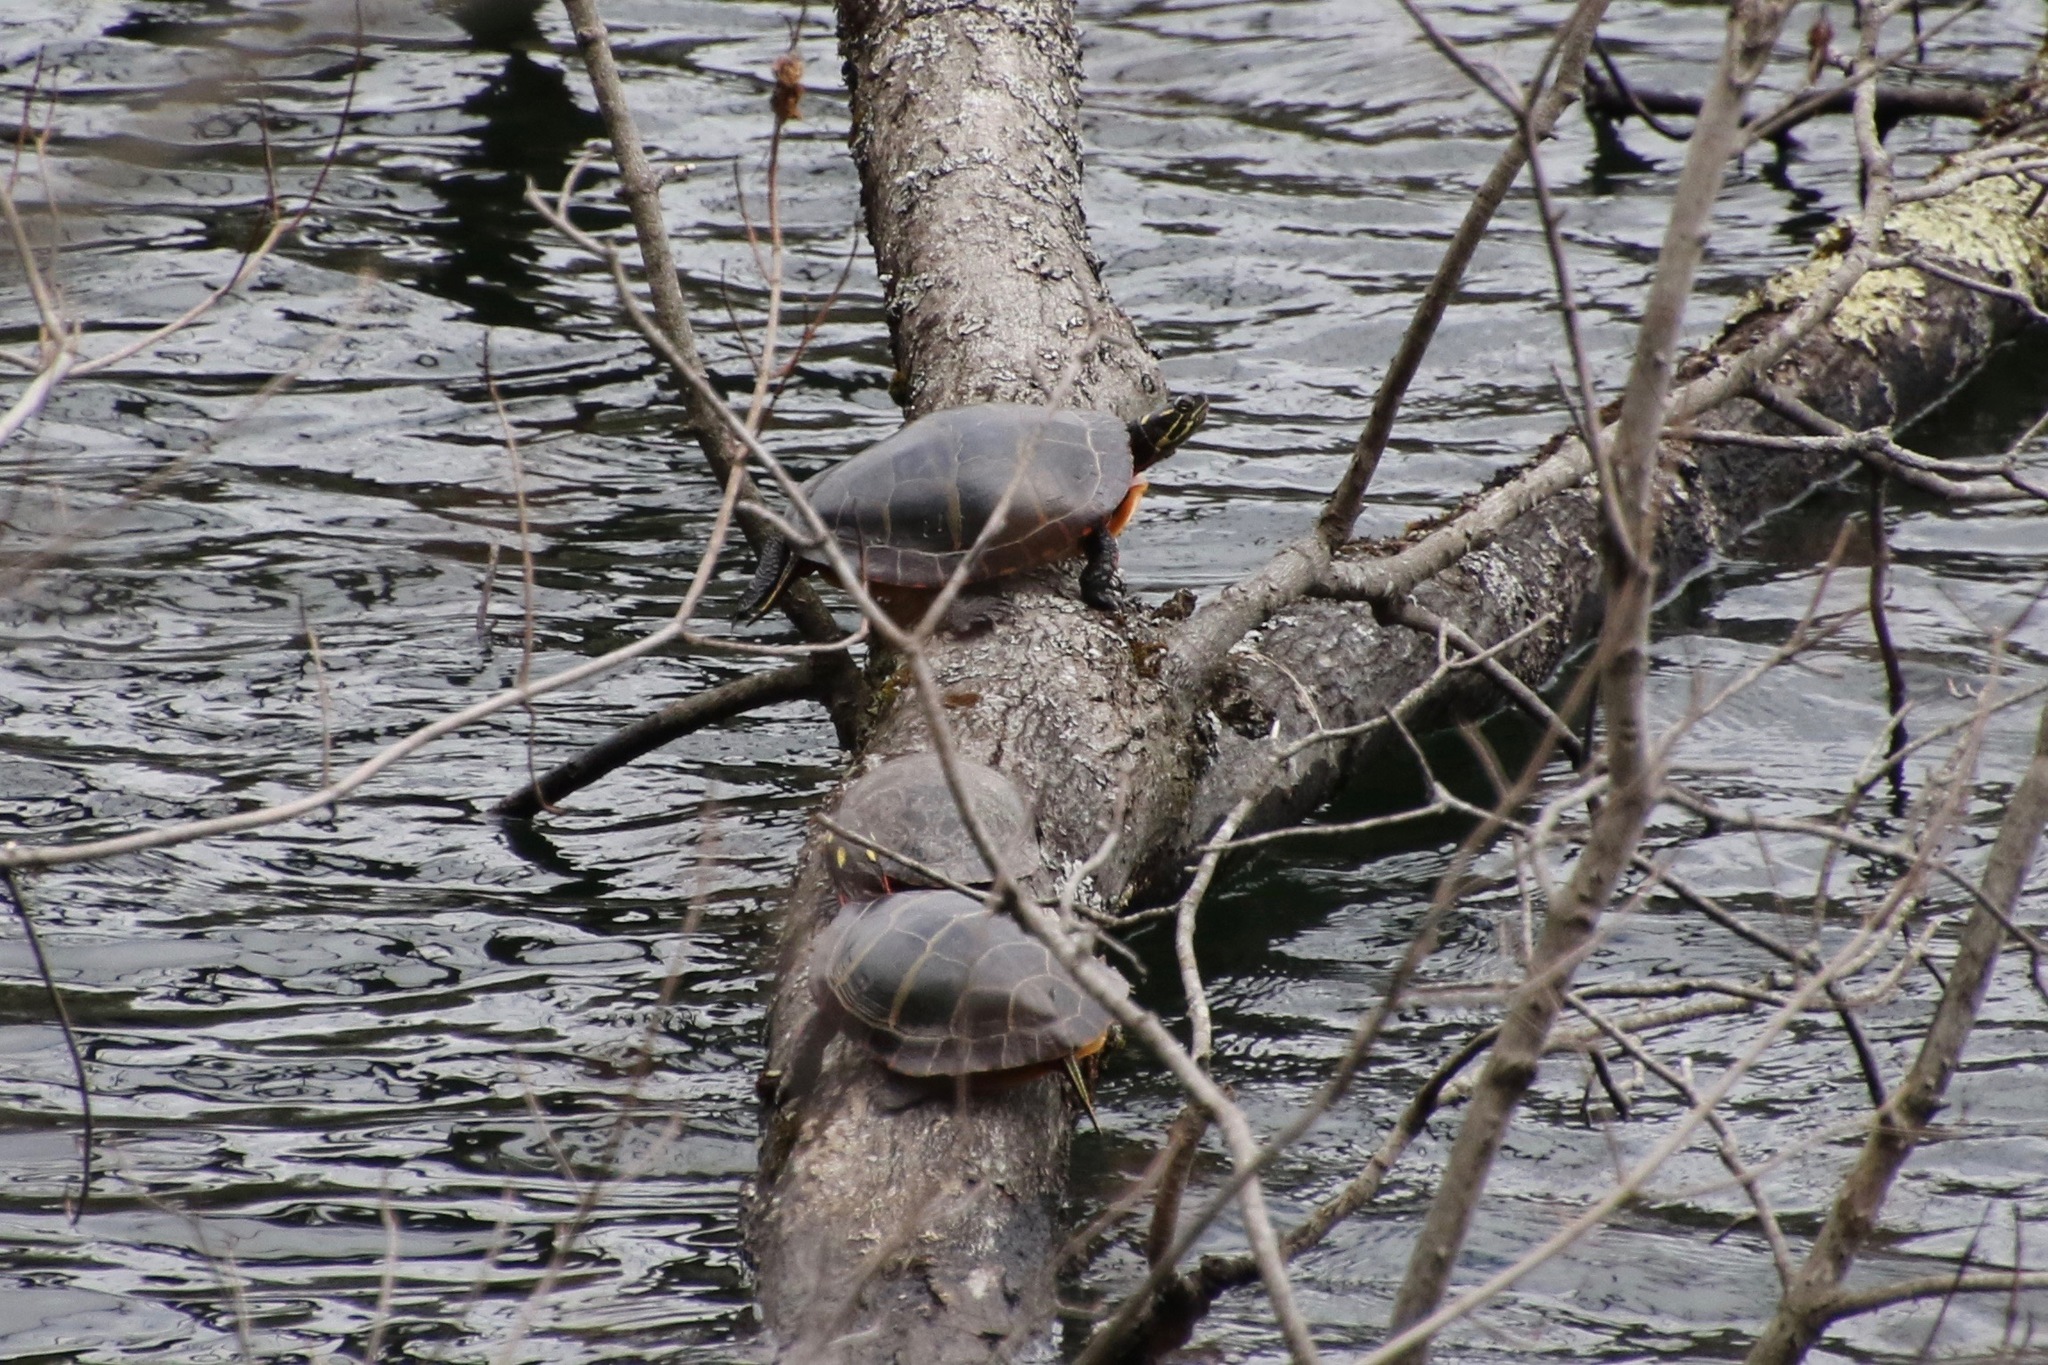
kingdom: Animalia
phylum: Chordata
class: Testudines
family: Emydidae
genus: Chrysemys
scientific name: Chrysemys picta
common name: Painted turtle
